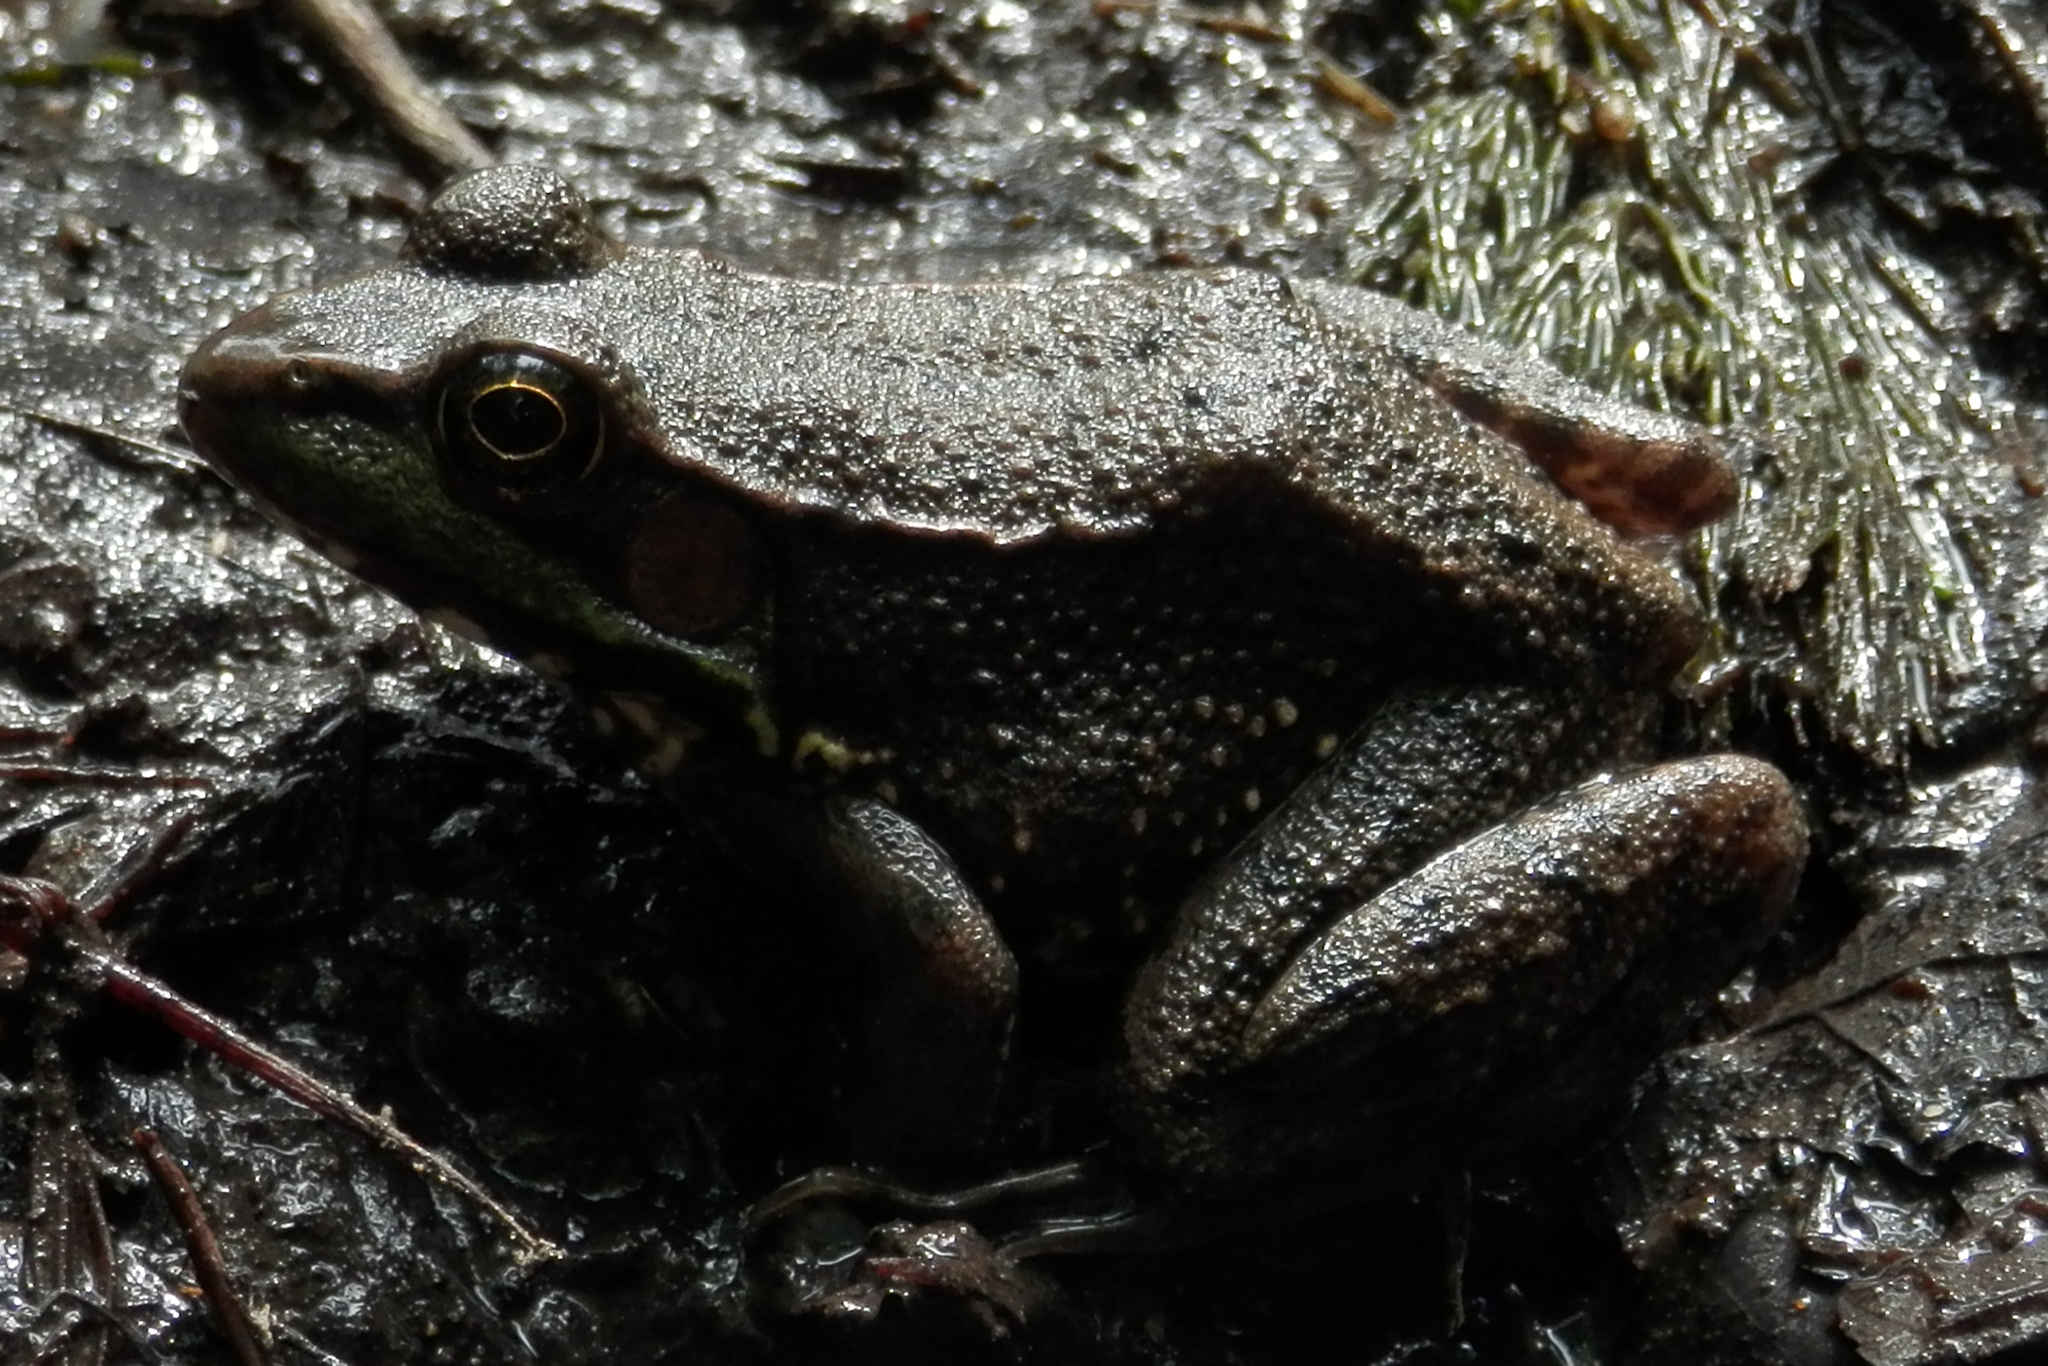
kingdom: Animalia
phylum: Chordata
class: Amphibia
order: Anura
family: Ranidae
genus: Lithobates
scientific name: Lithobates clamitans
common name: Green frog
